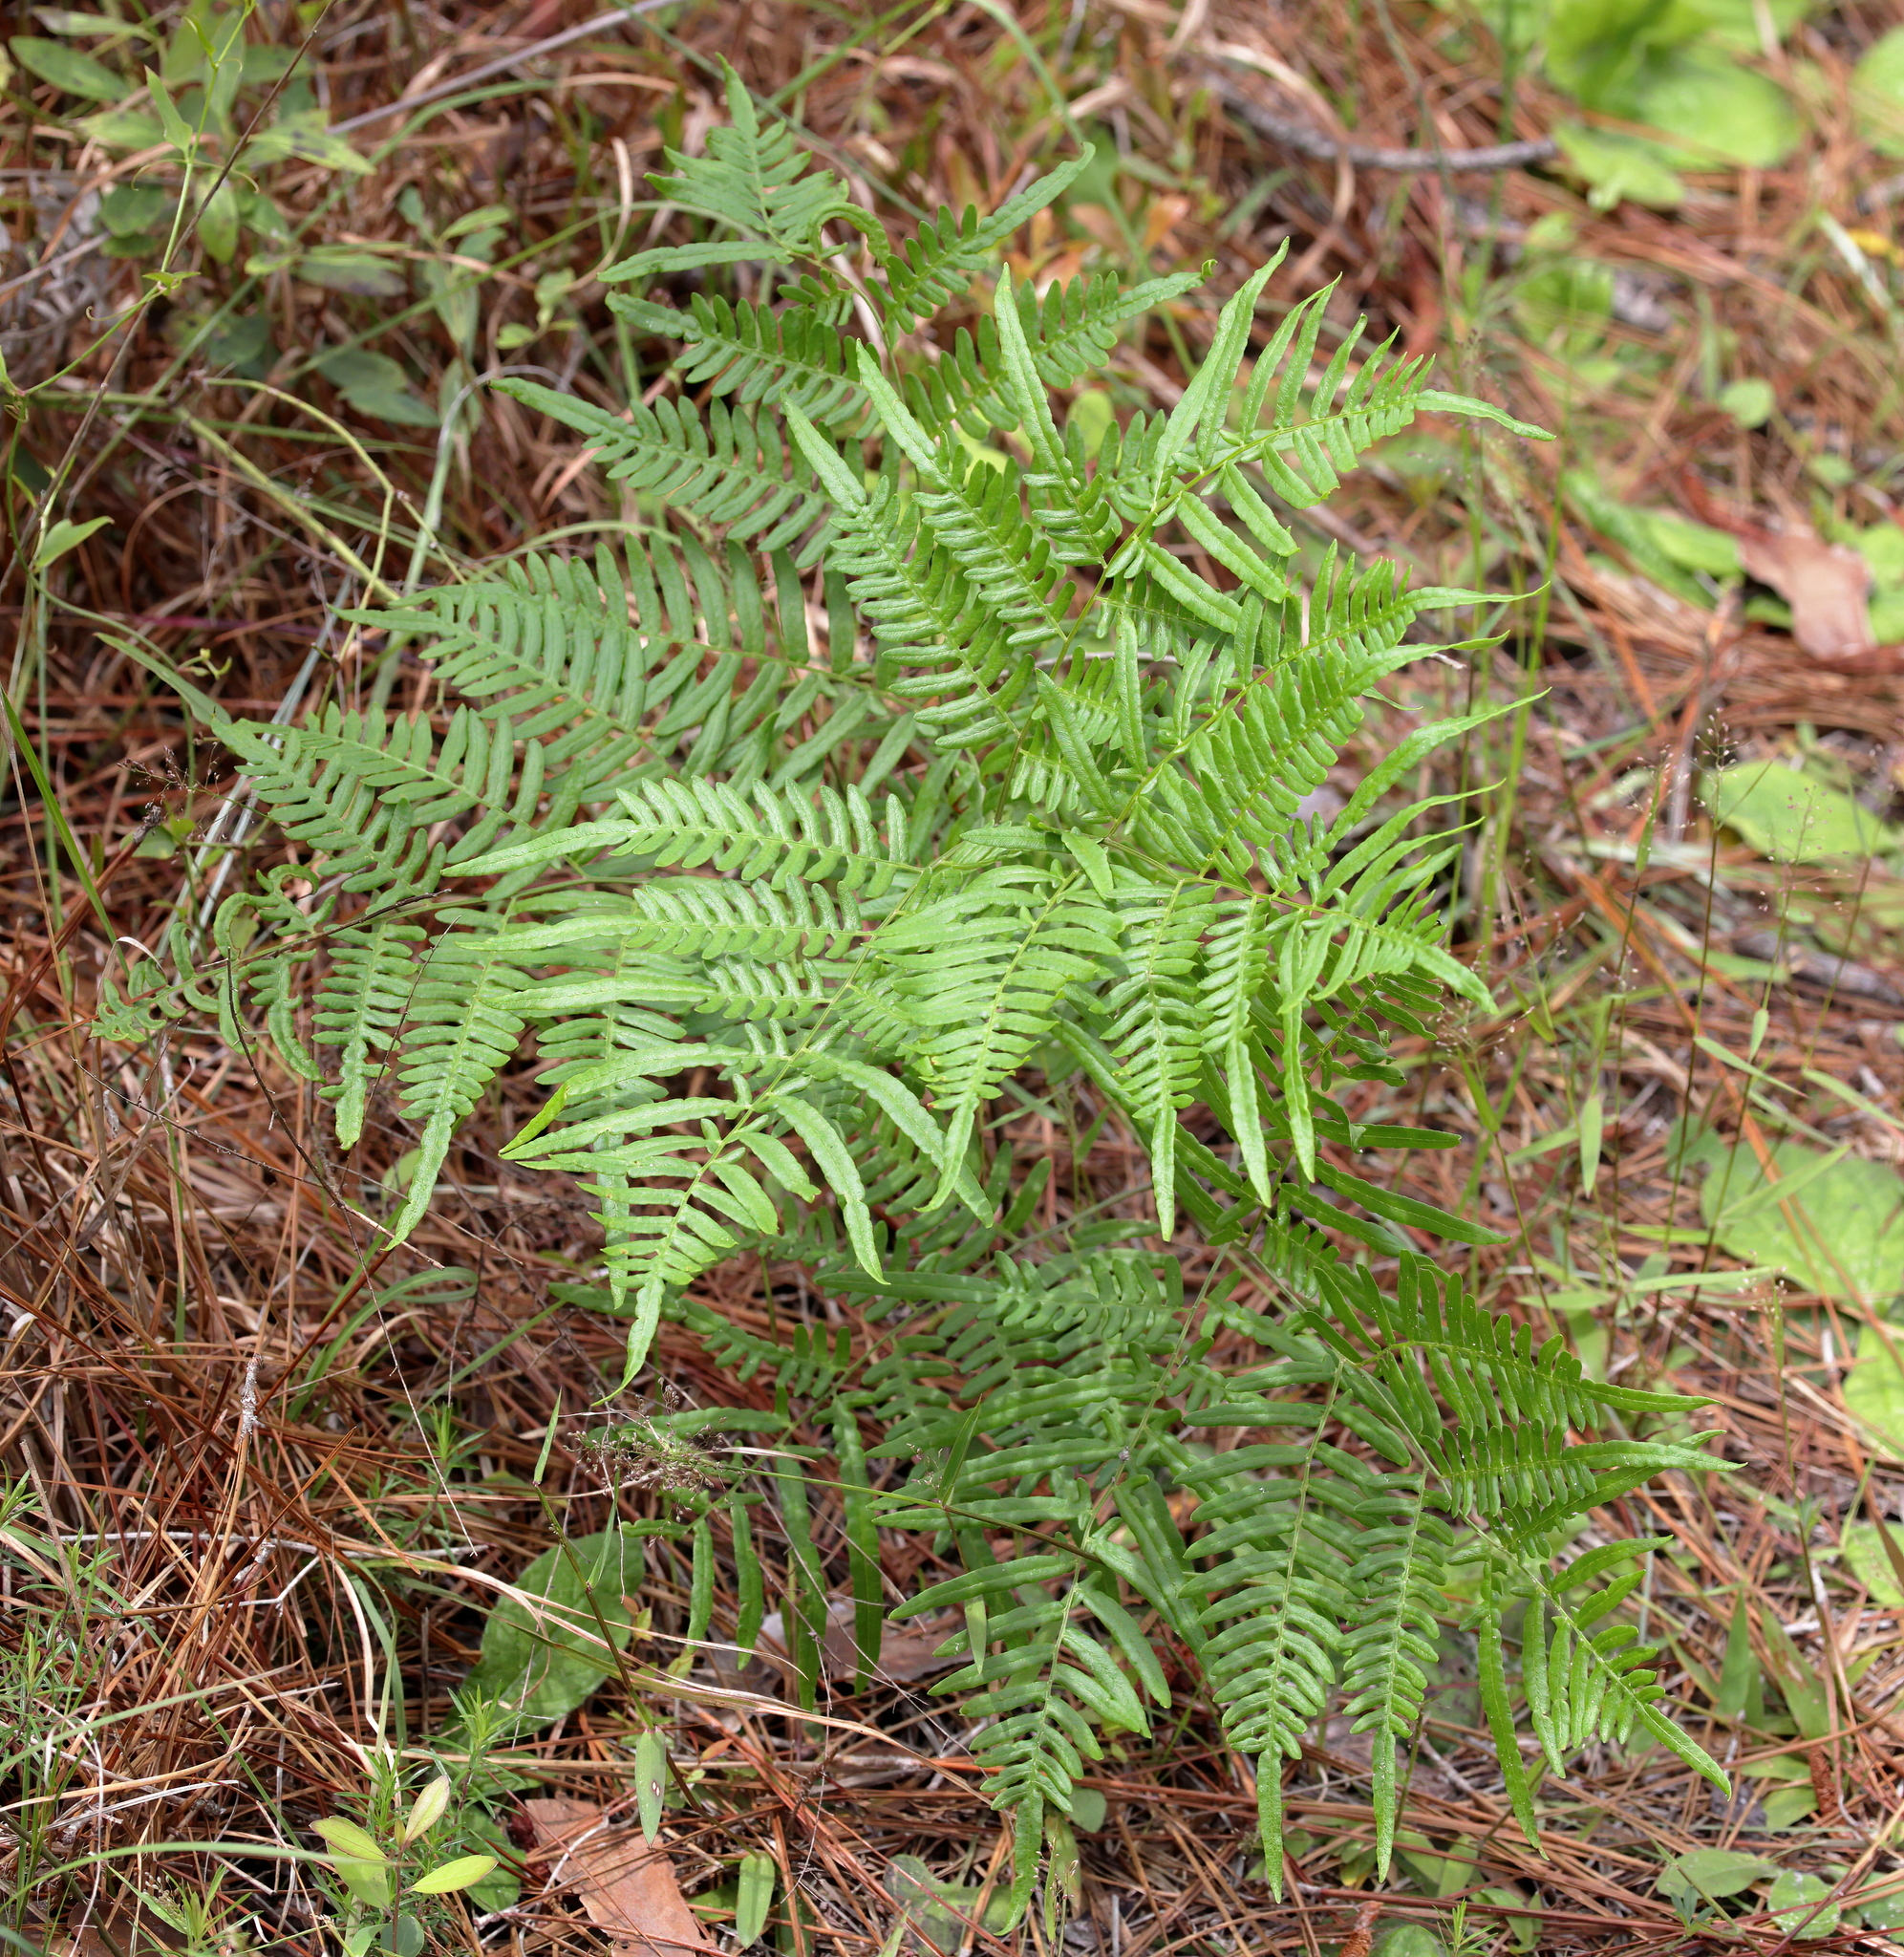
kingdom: Plantae
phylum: Tracheophyta
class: Polypodiopsida
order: Polypodiales
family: Dennstaedtiaceae
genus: Pteridium
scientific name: Pteridium aquilinum
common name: Bracken
